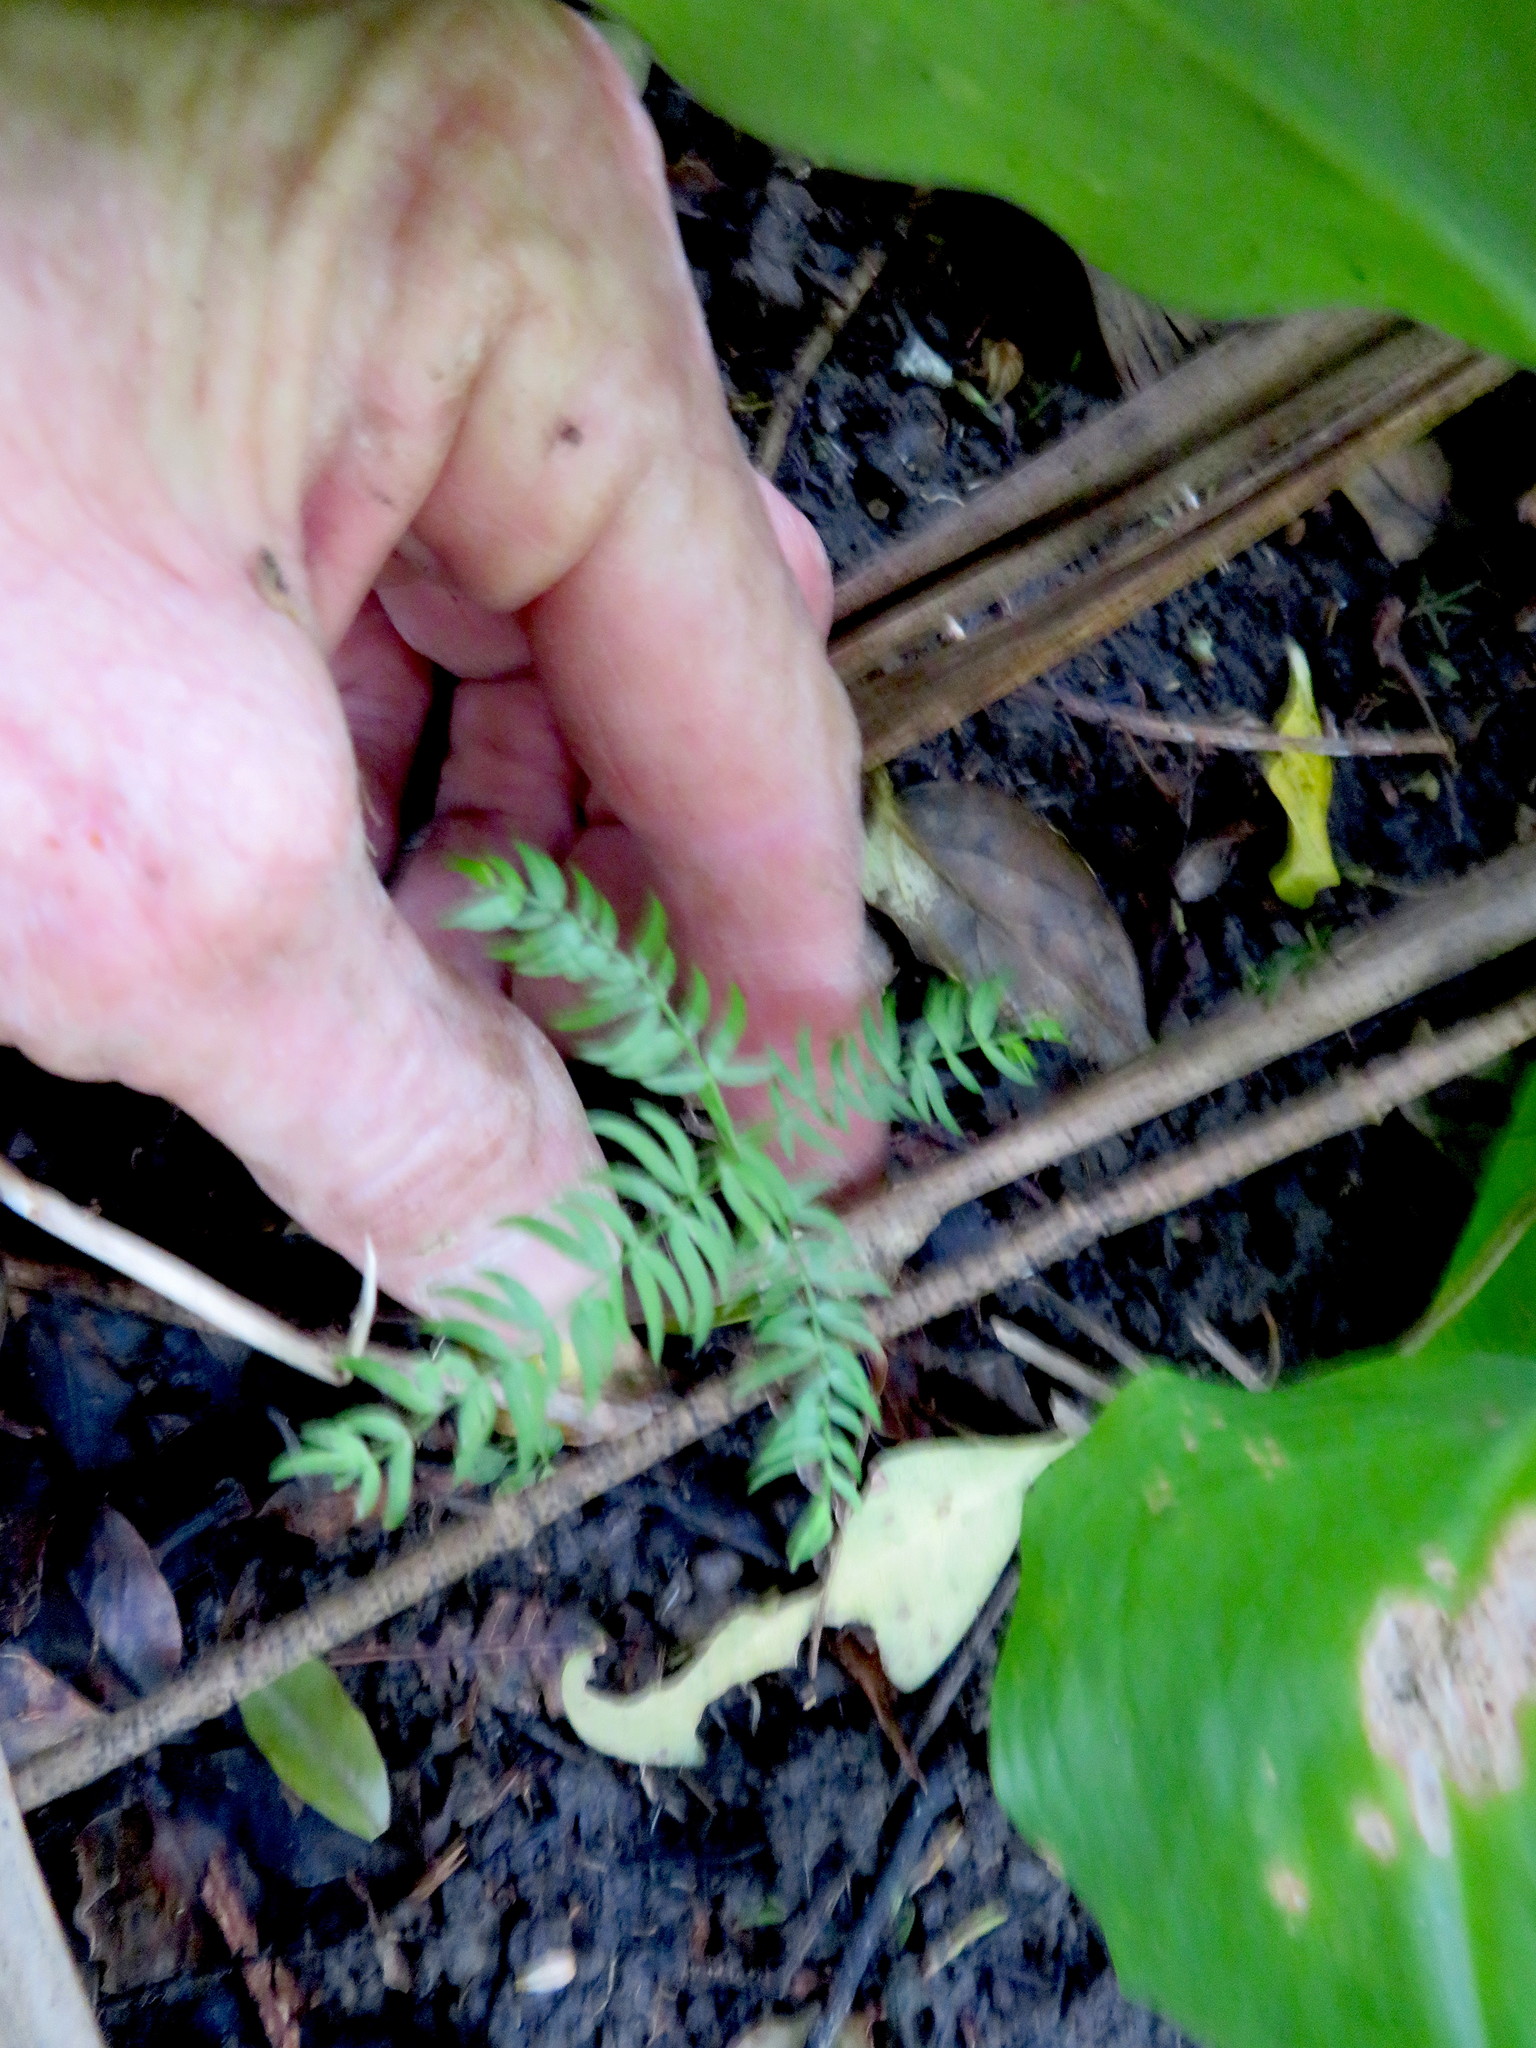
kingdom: Plantae
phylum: Tracheophyta
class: Liliopsida
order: Asparagales
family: Asparagaceae
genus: Asparagus
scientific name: Asparagus scandens
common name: Asparagus-fern
